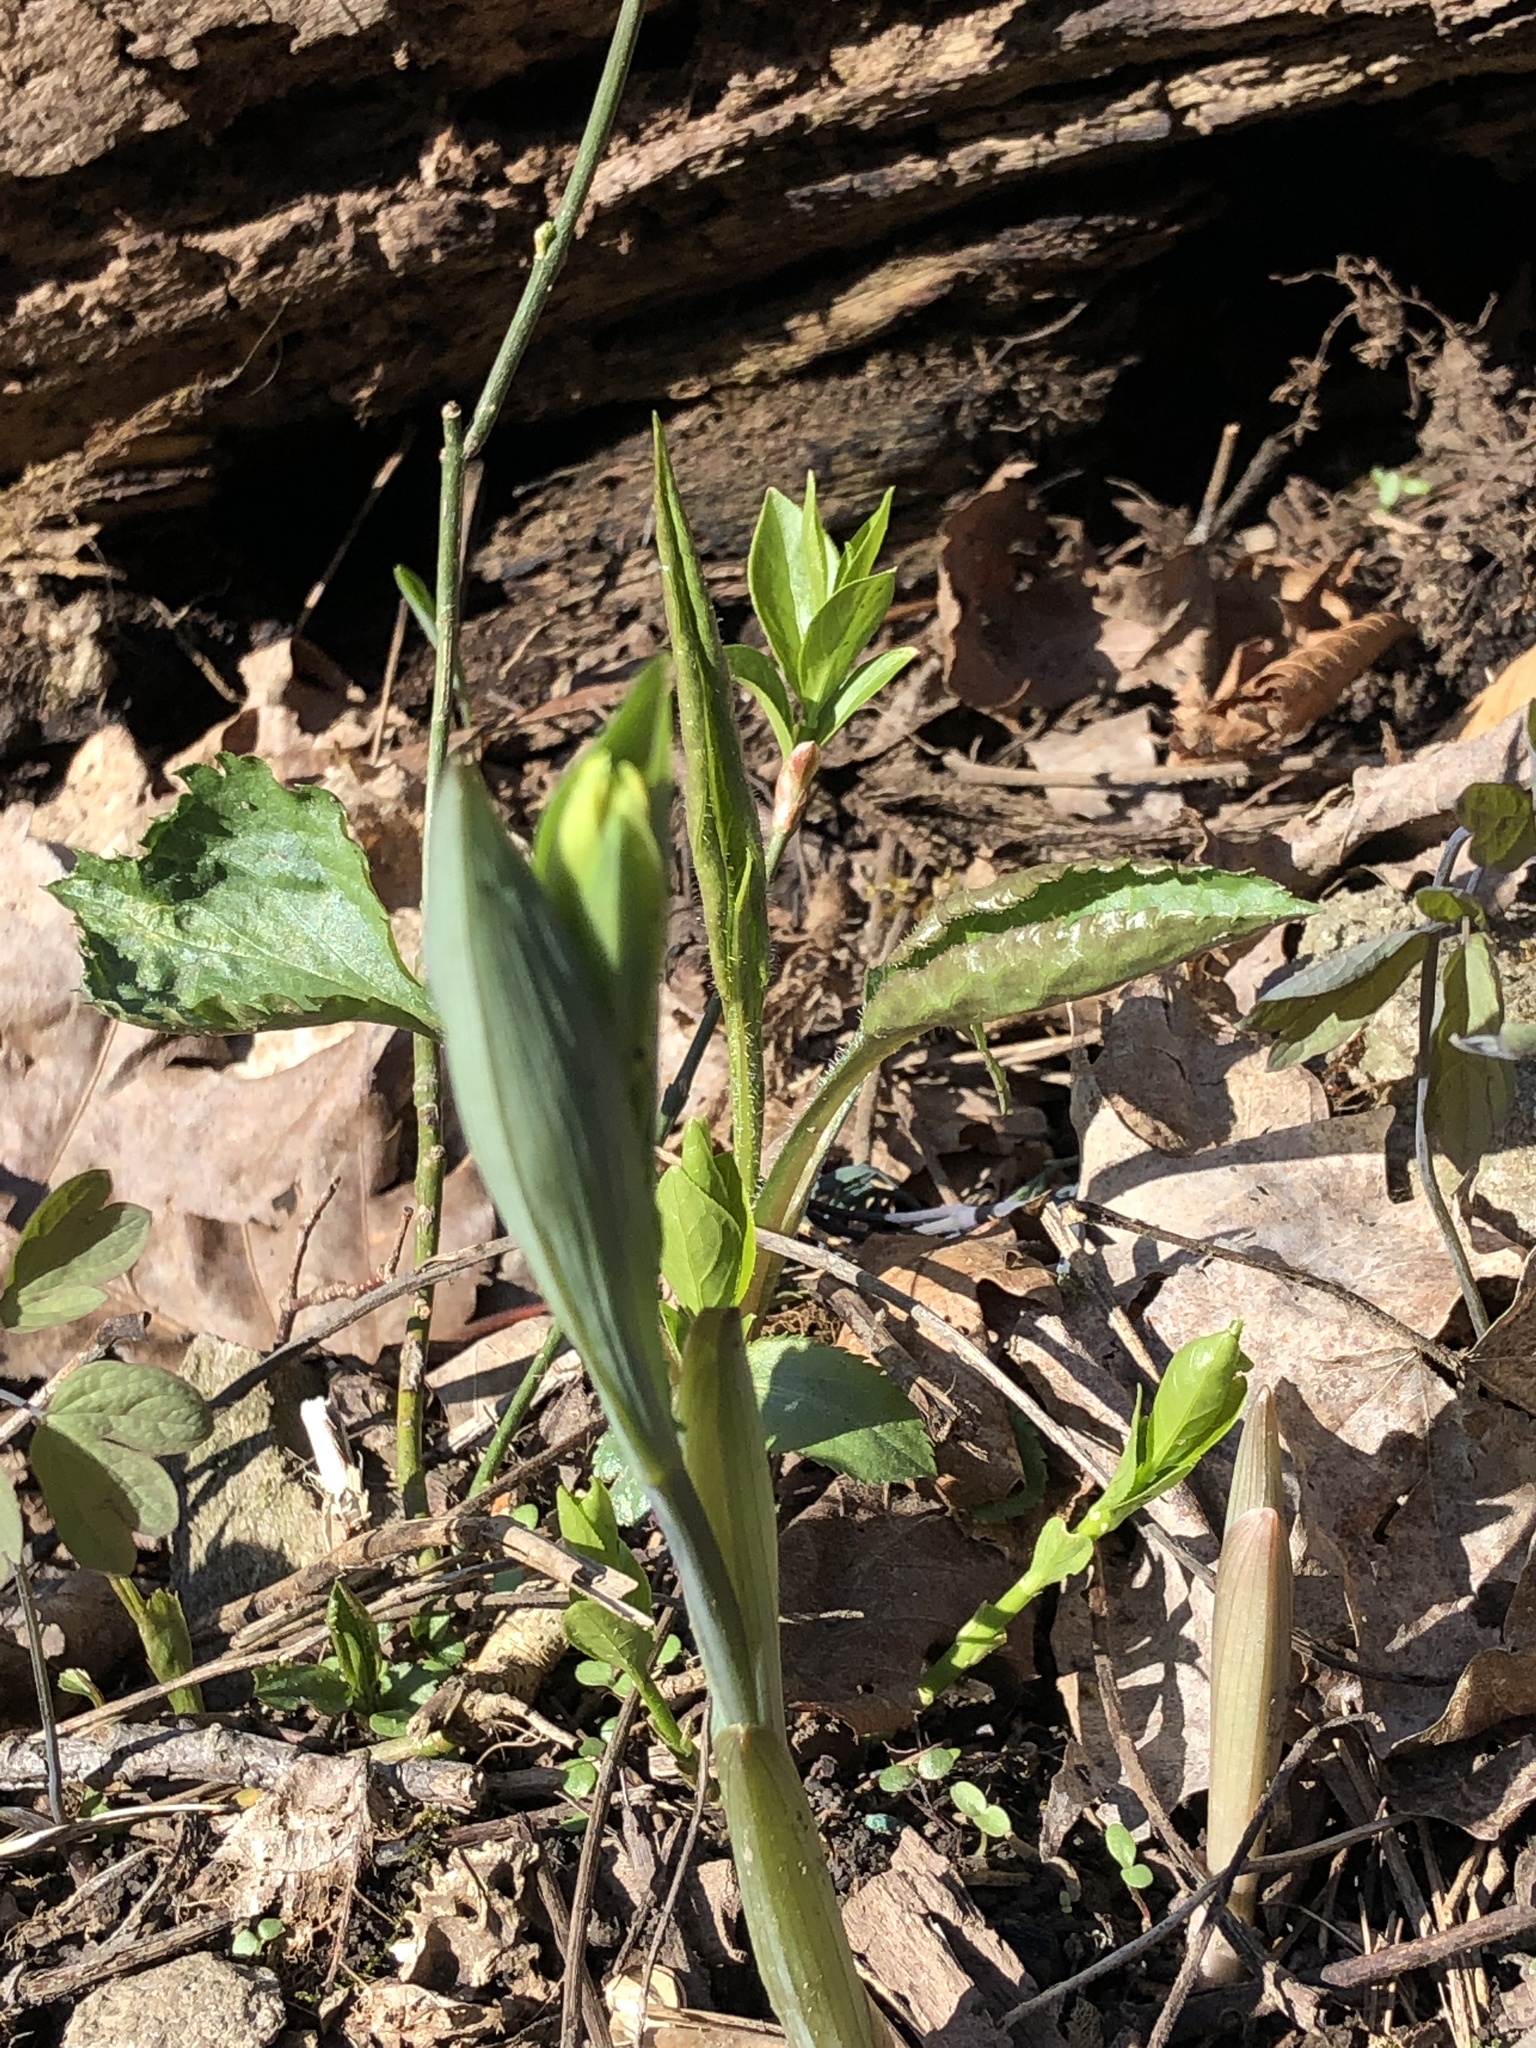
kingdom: Plantae
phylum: Tracheophyta
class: Liliopsida
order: Liliales
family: Colchicaceae
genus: Uvularia
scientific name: Uvularia grandiflora
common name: Bellwort
